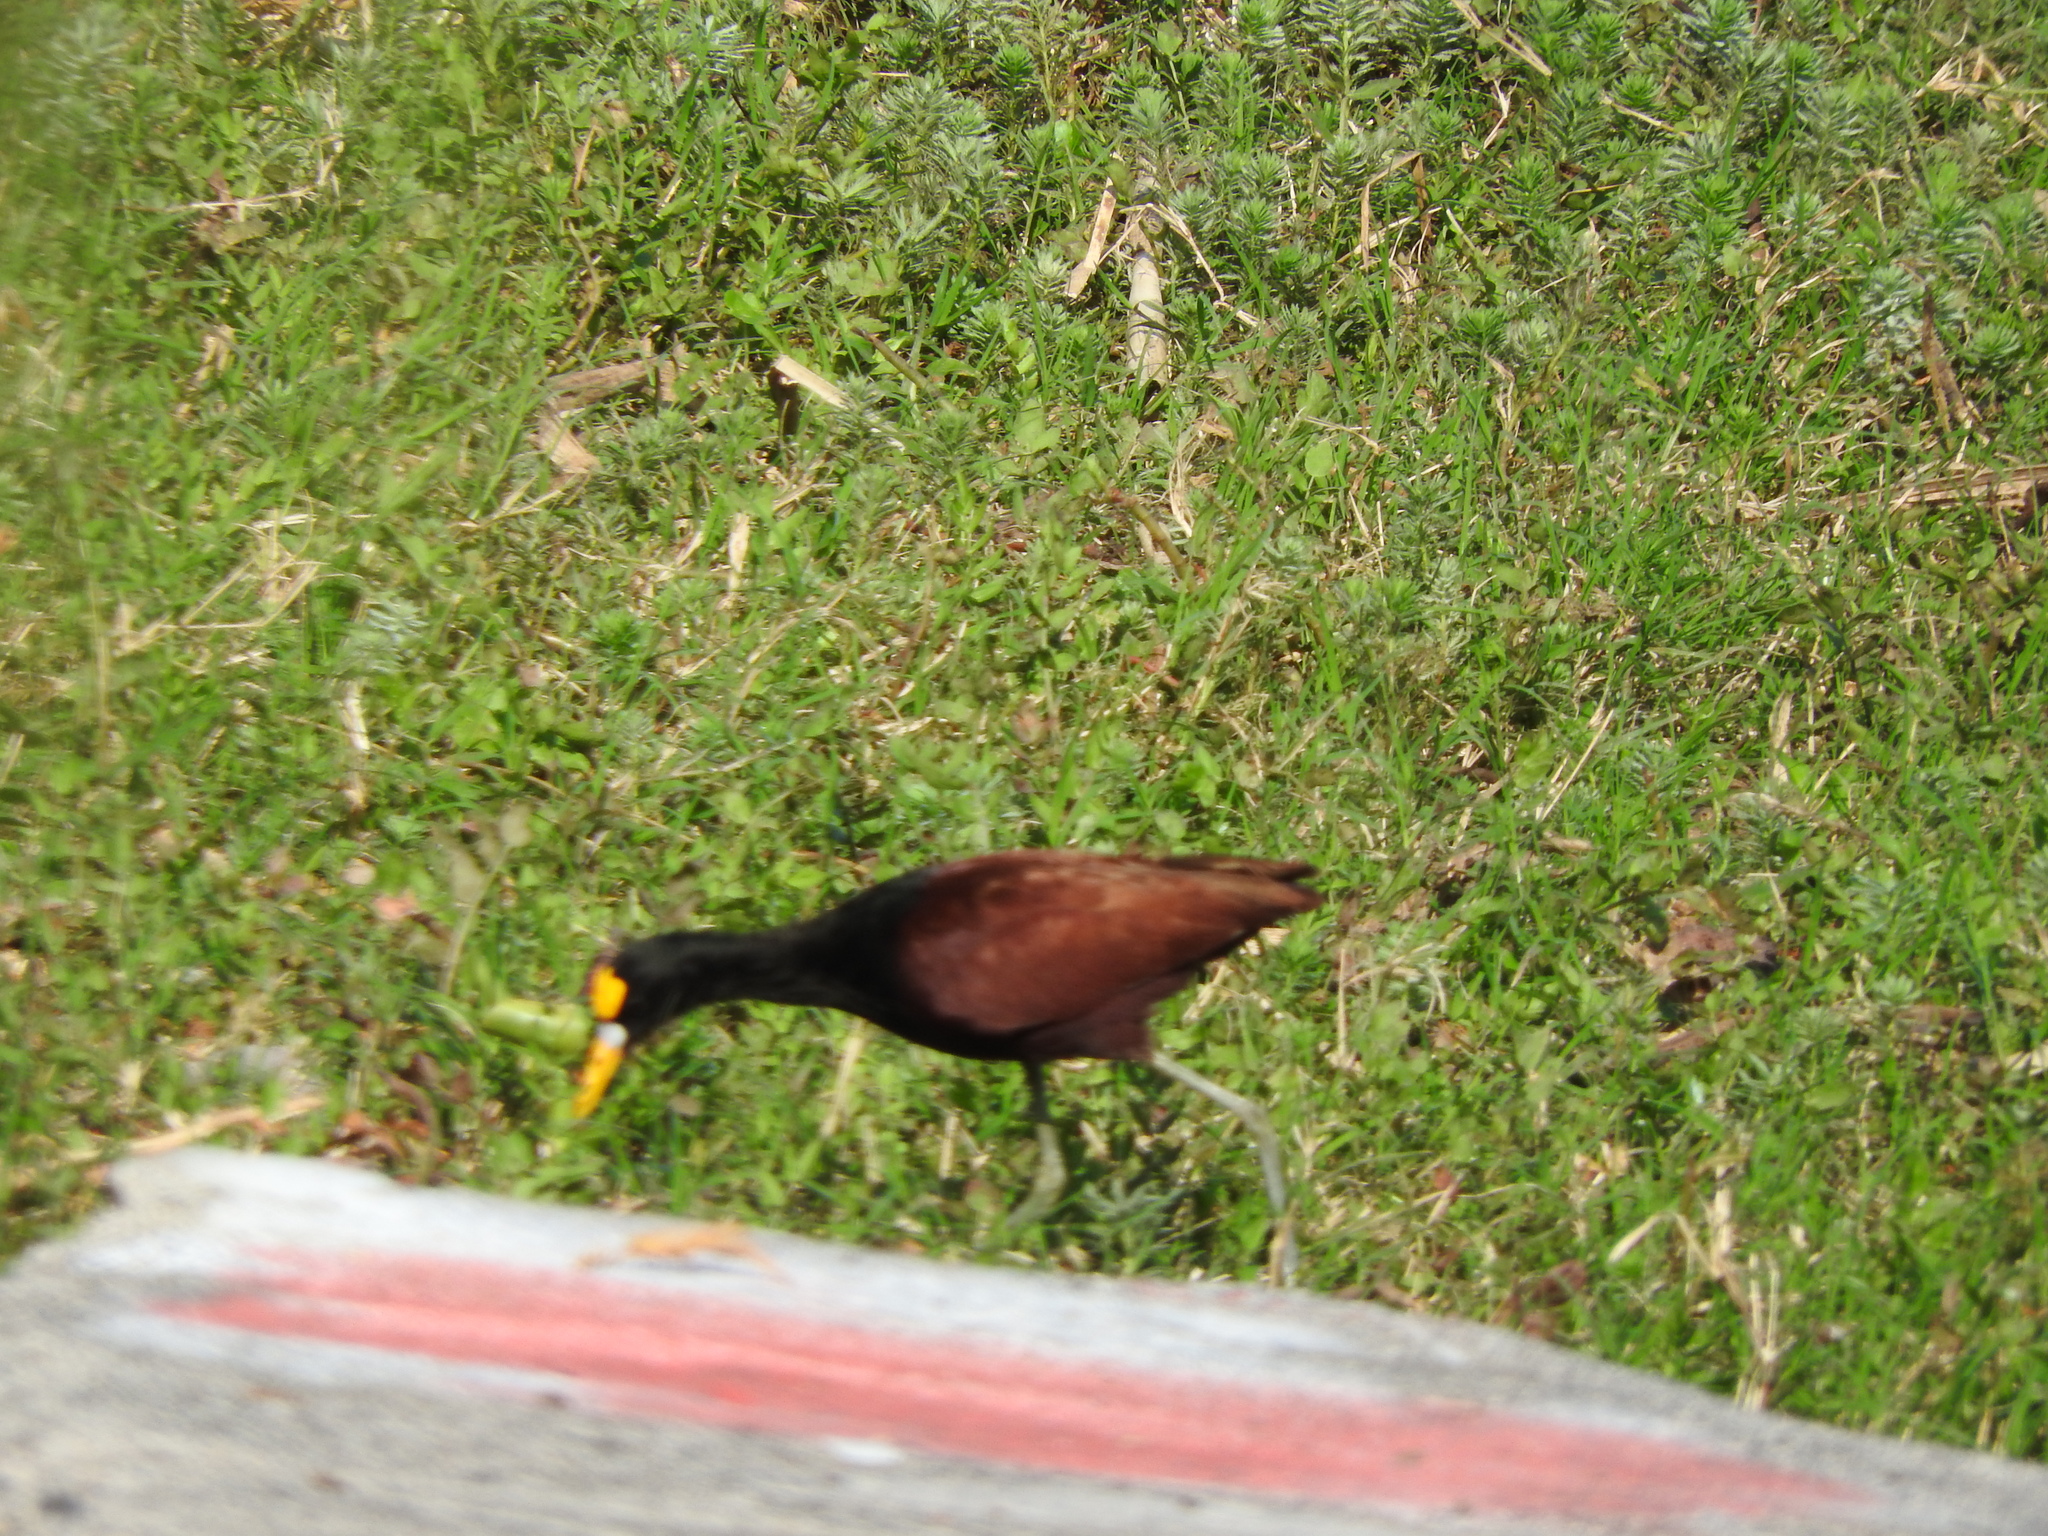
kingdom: Animalia
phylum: Chordata
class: Aves
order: Charadriiformes
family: Jacanidae
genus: Jacana
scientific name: Jacana spinosa
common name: Northern jacana
